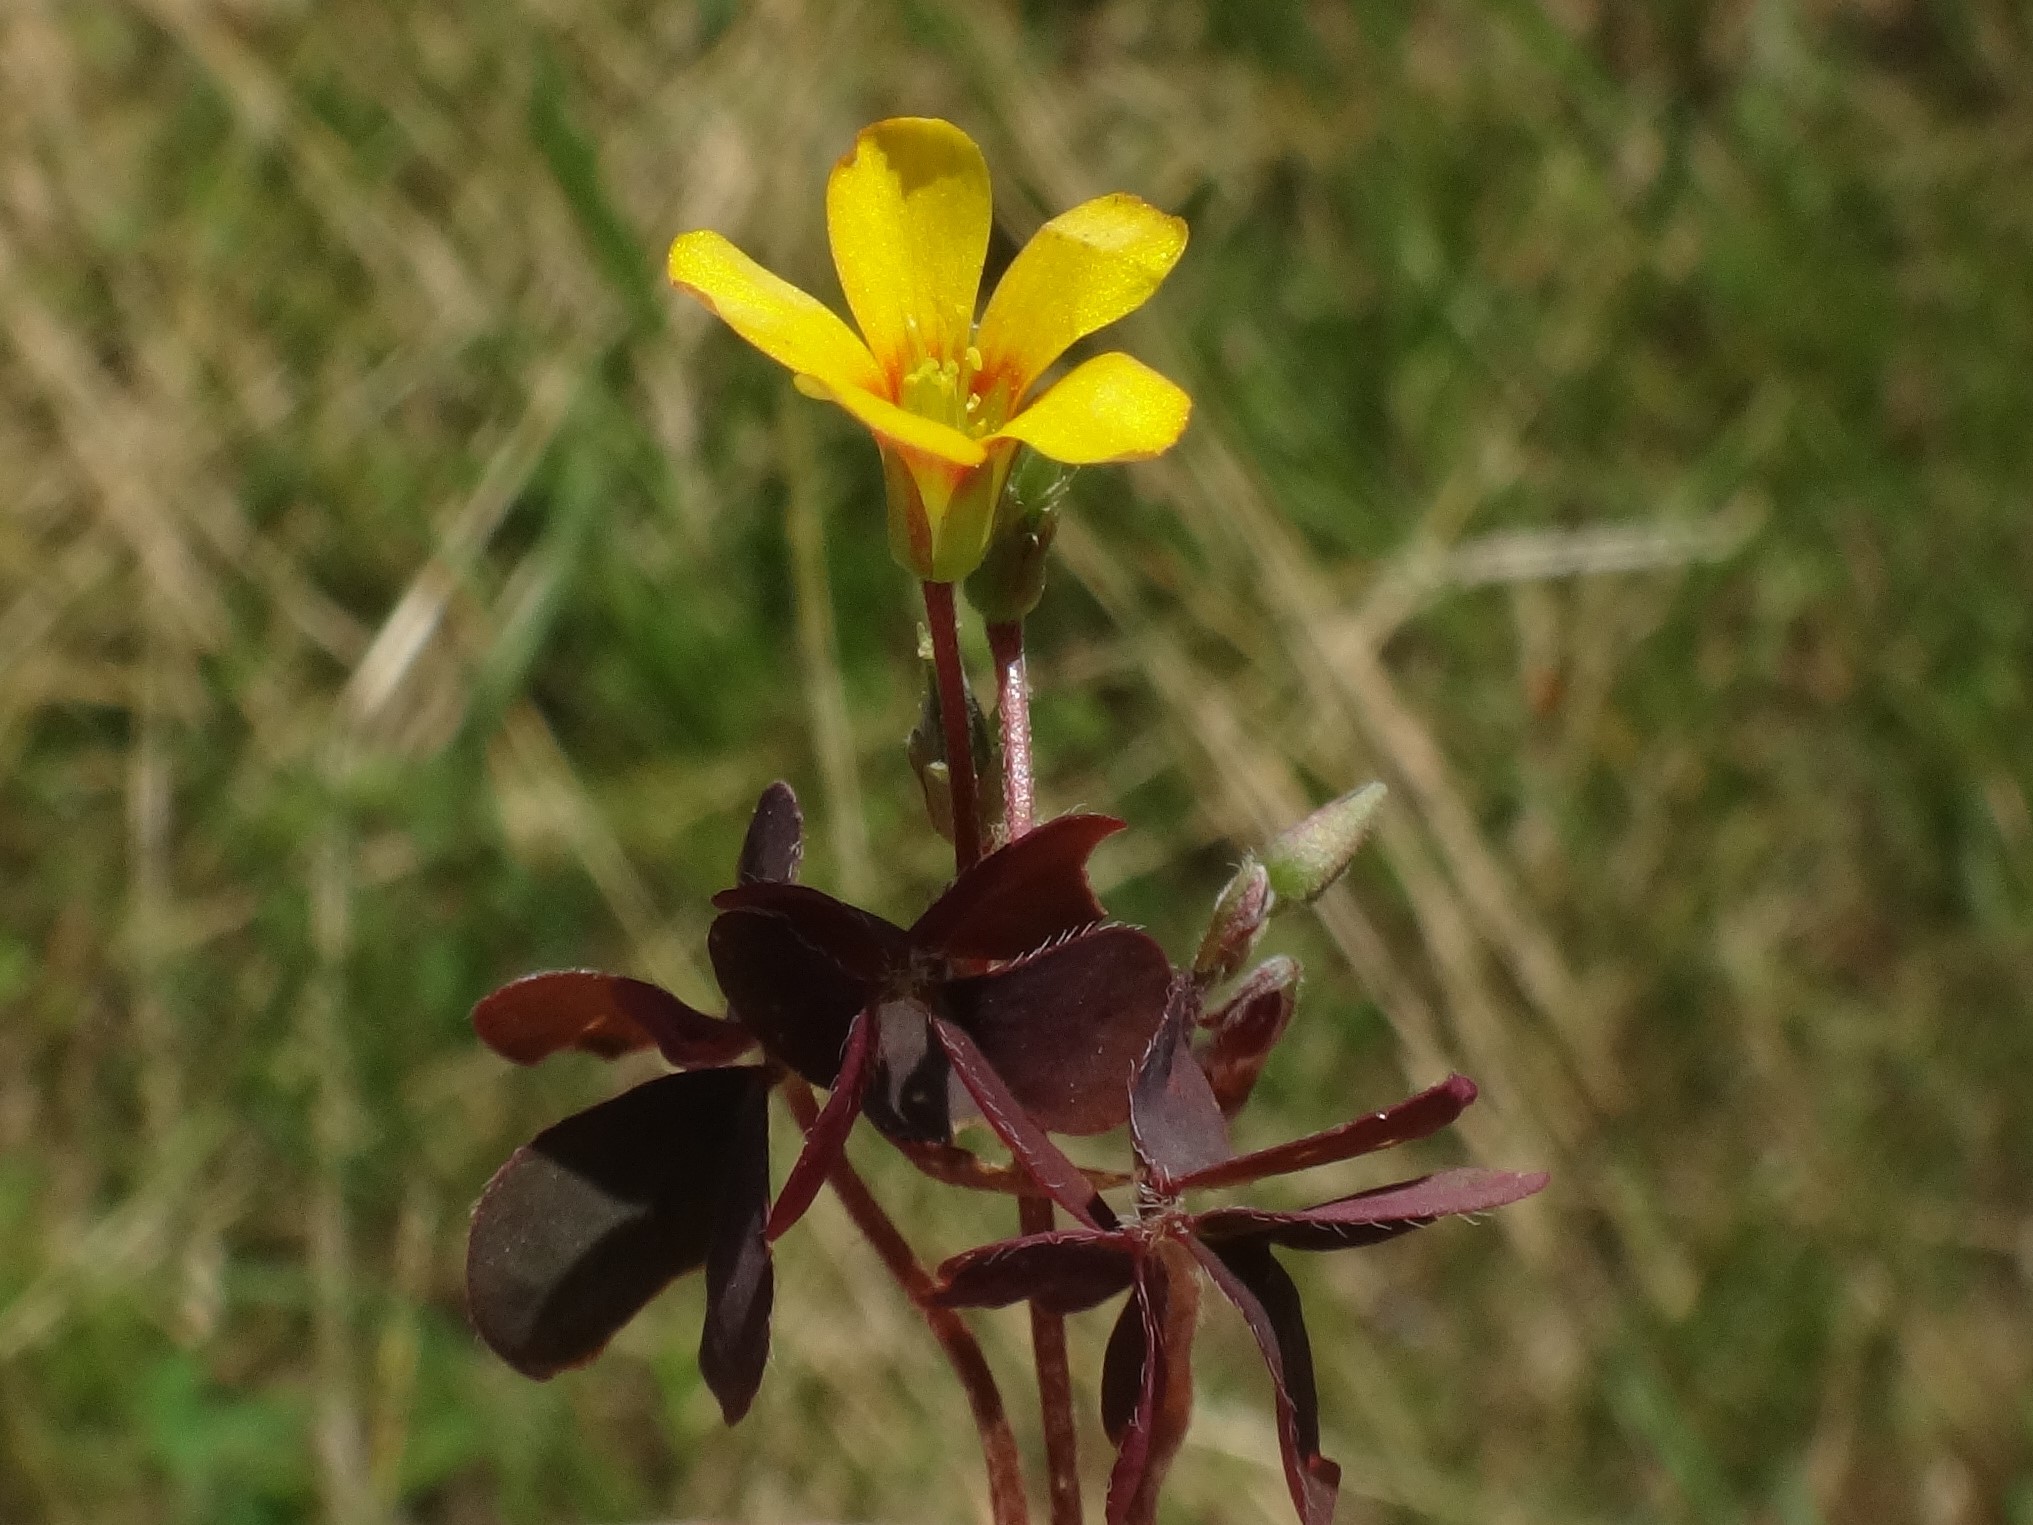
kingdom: Plantae
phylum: Tracheophyta
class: Magnoliopsida
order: Oxalidales
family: Oxalidaceae
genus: Oxalis
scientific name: Oxalis corniculata
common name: Procumbent yellow-sorrel
